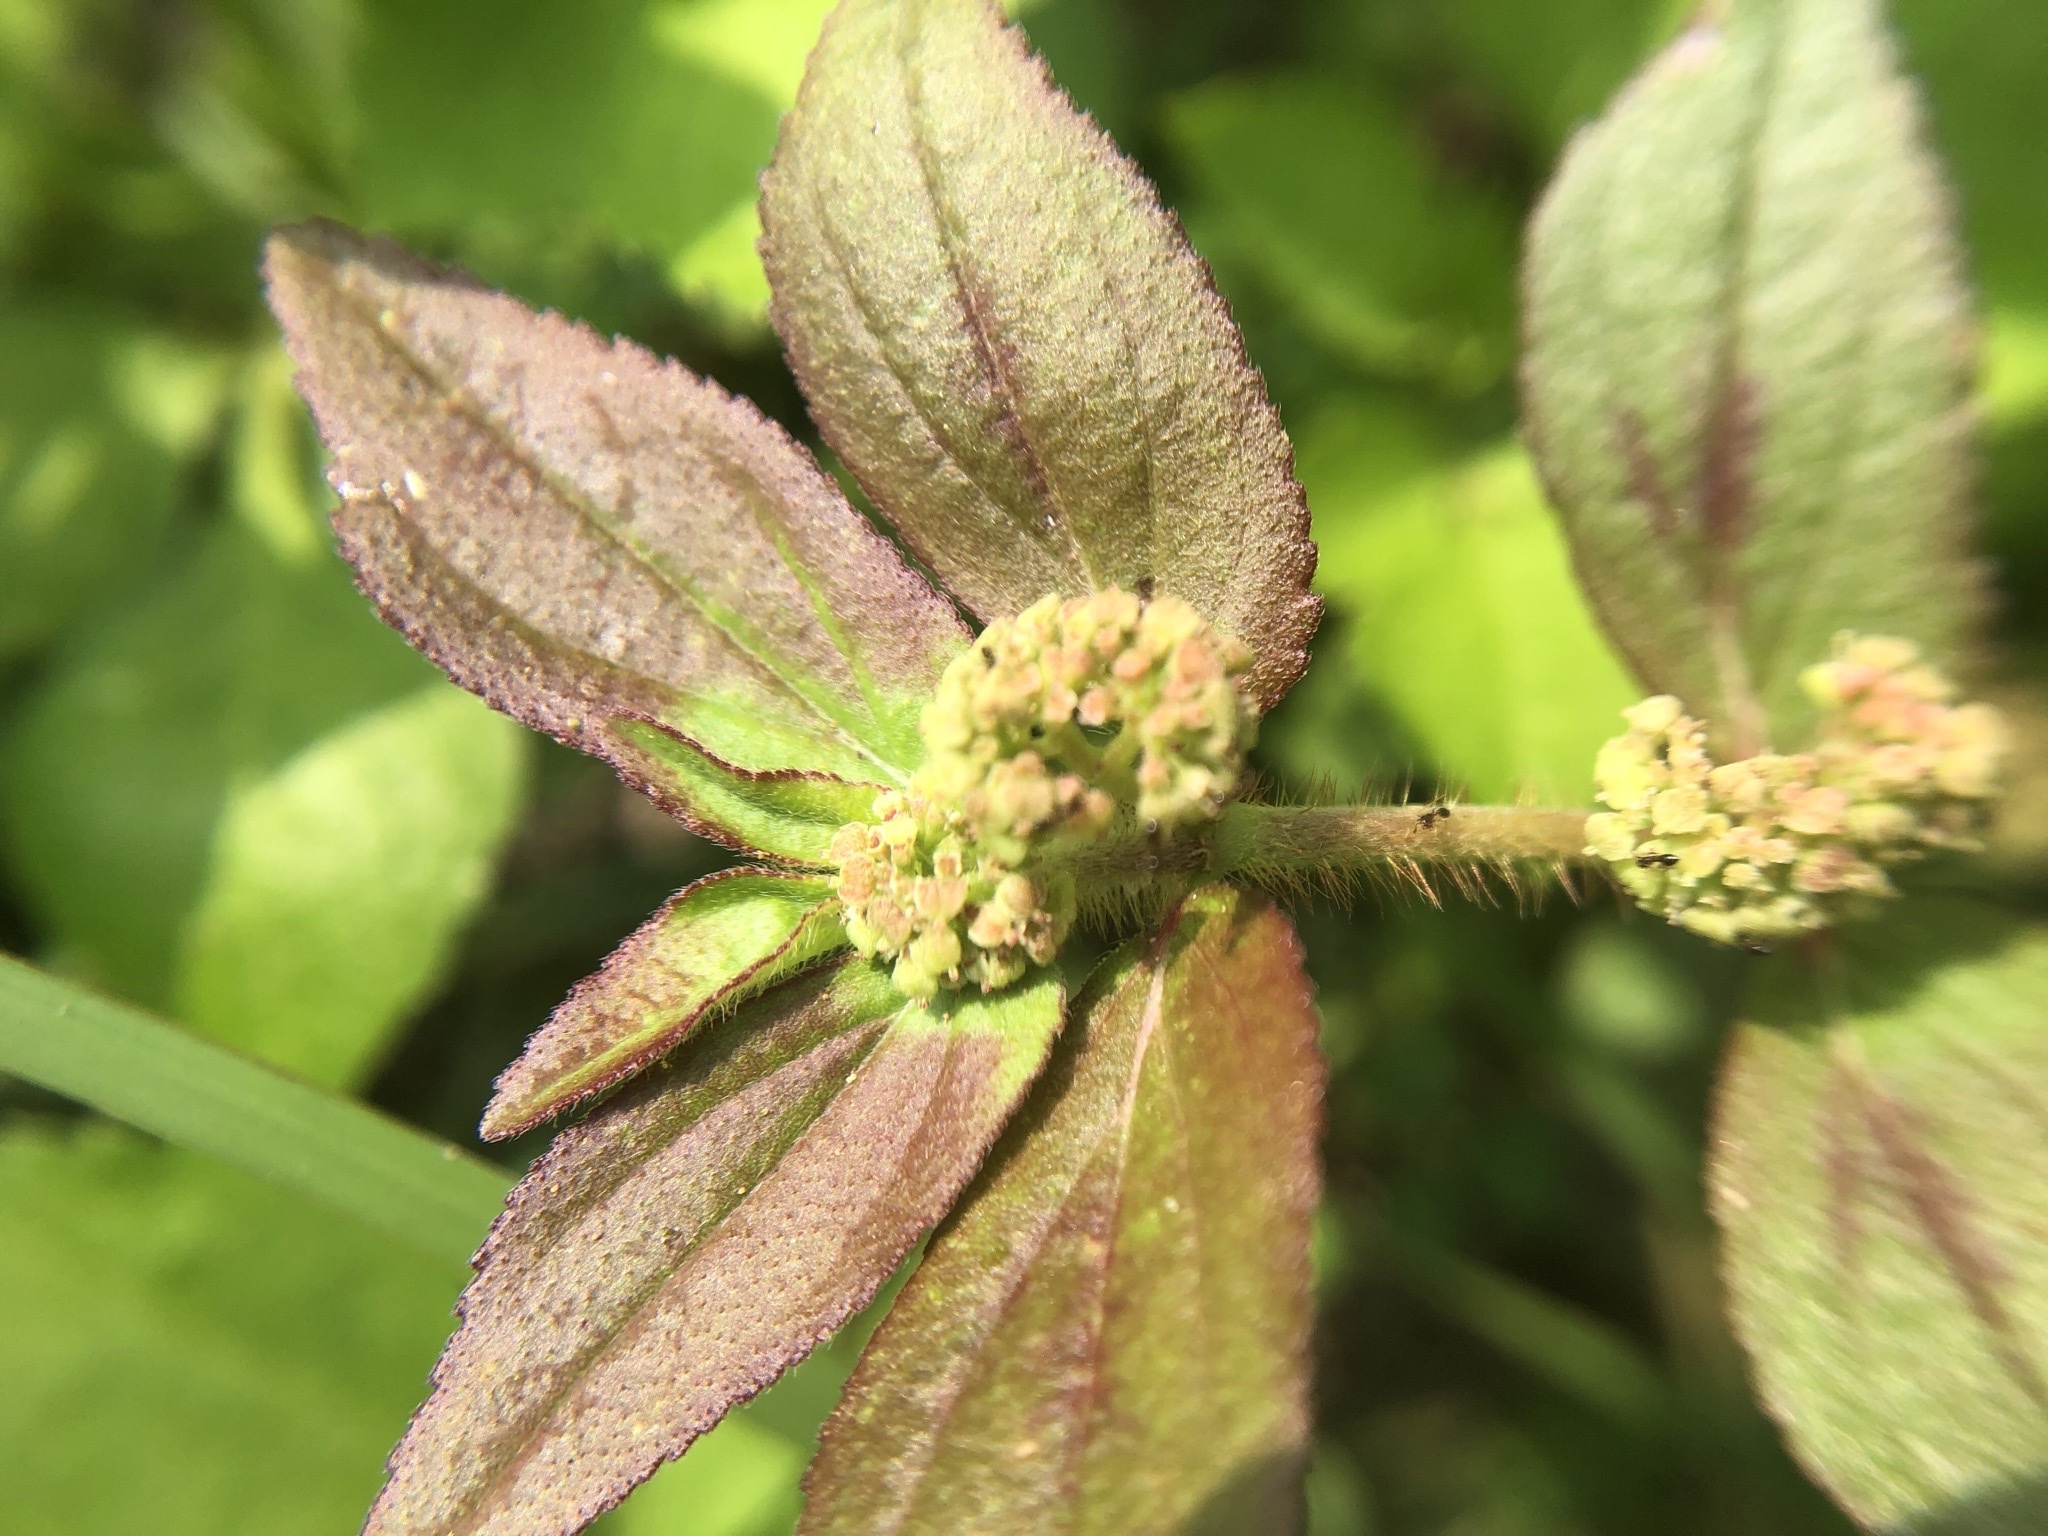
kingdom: Plantae
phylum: Tracheophyta
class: Magnoliopsida
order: Malpighiales
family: Euphorbiaceae
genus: Euphorbia
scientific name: Euphorbia hirta
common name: Pillpod sandmat
